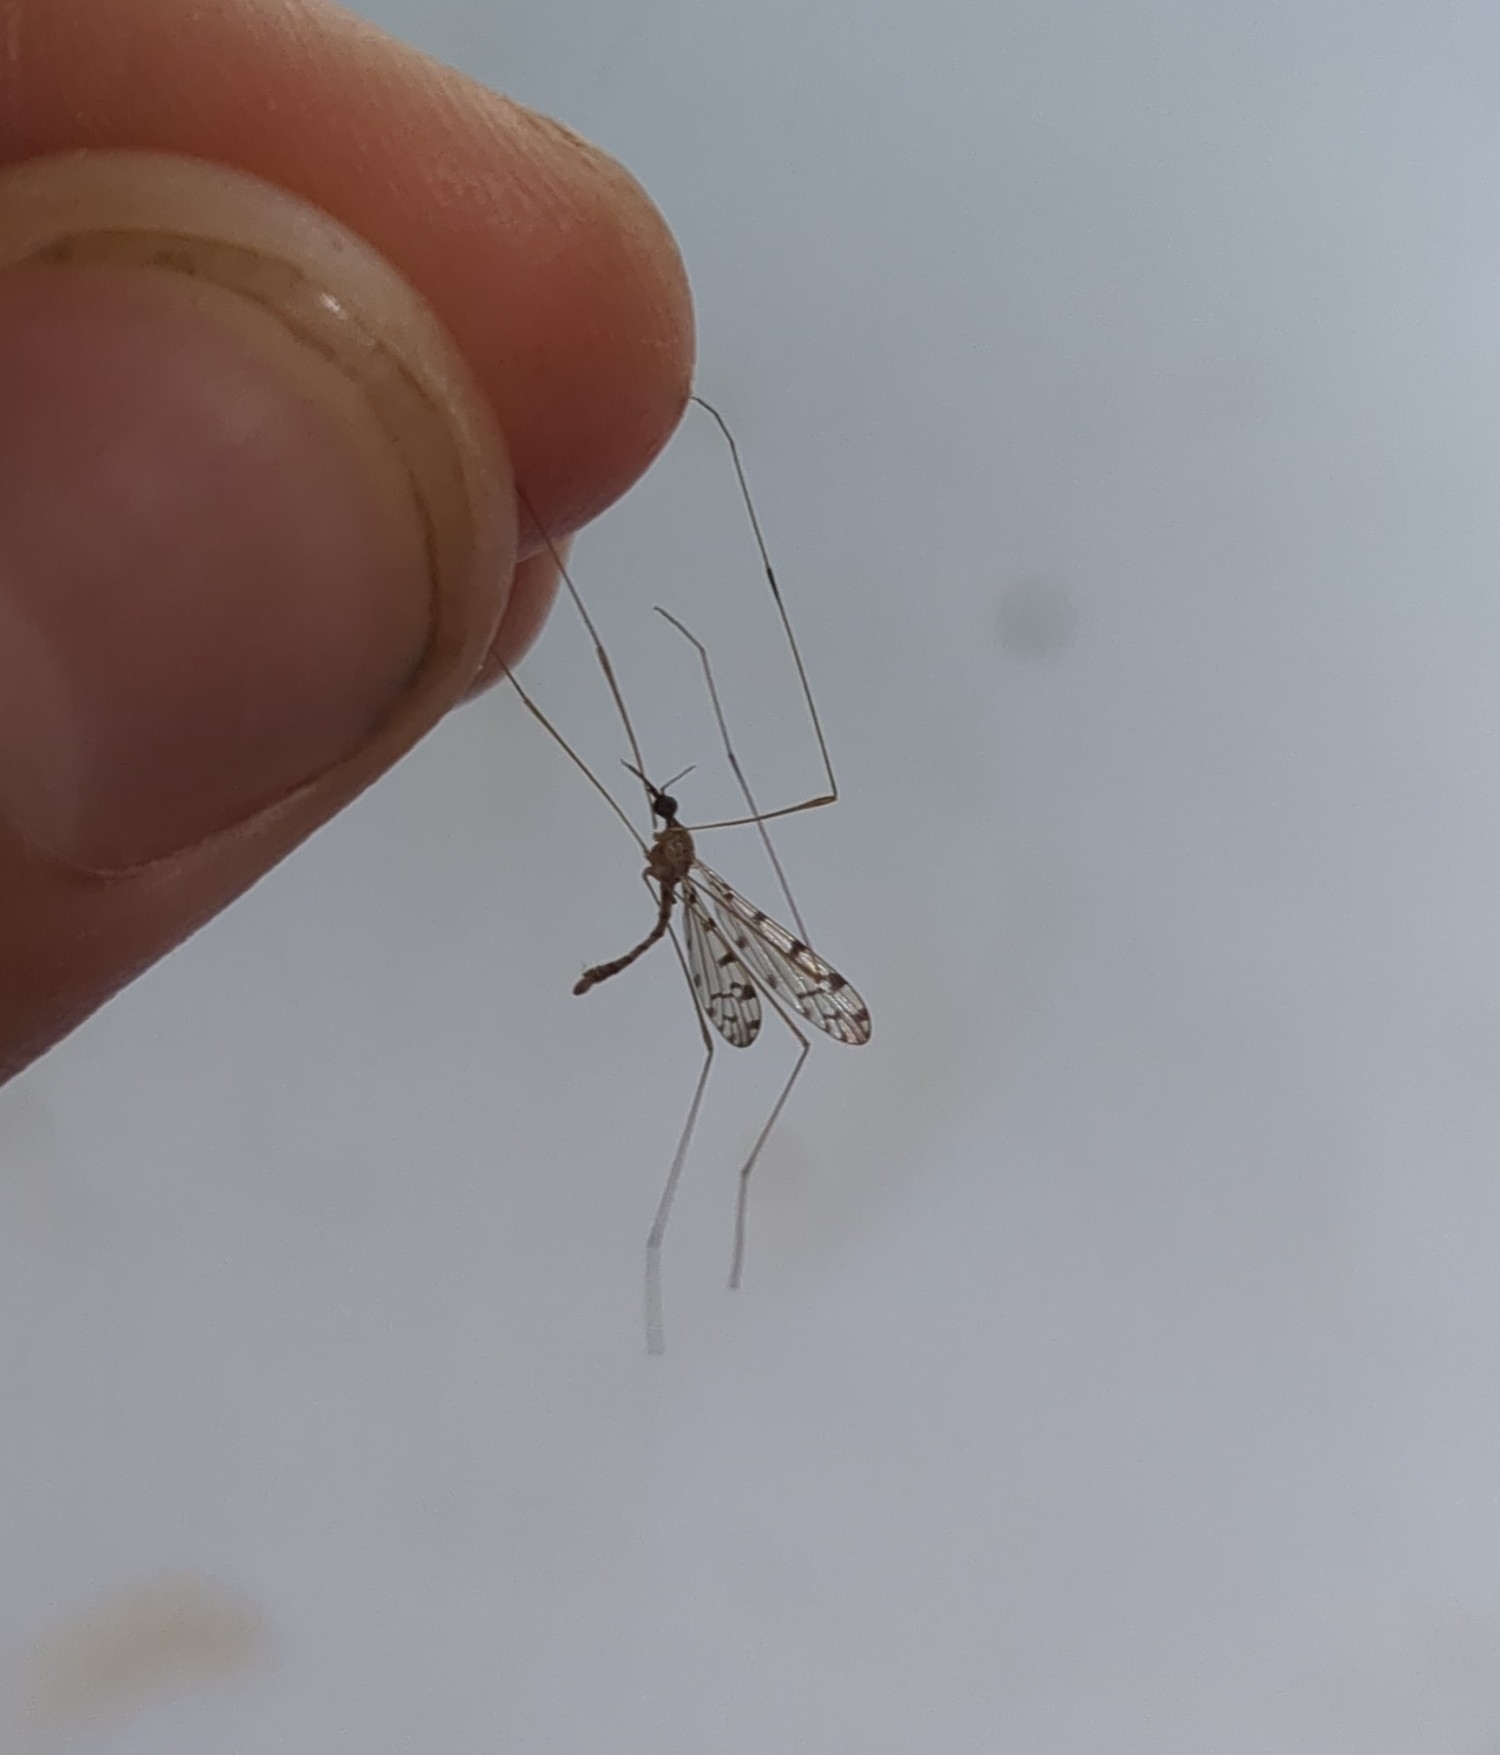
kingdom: Animalia
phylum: Arthropoda
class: Insecta
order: Diptera
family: Limoniidae
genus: Geranomyia
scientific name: Geranomyia rostrata
